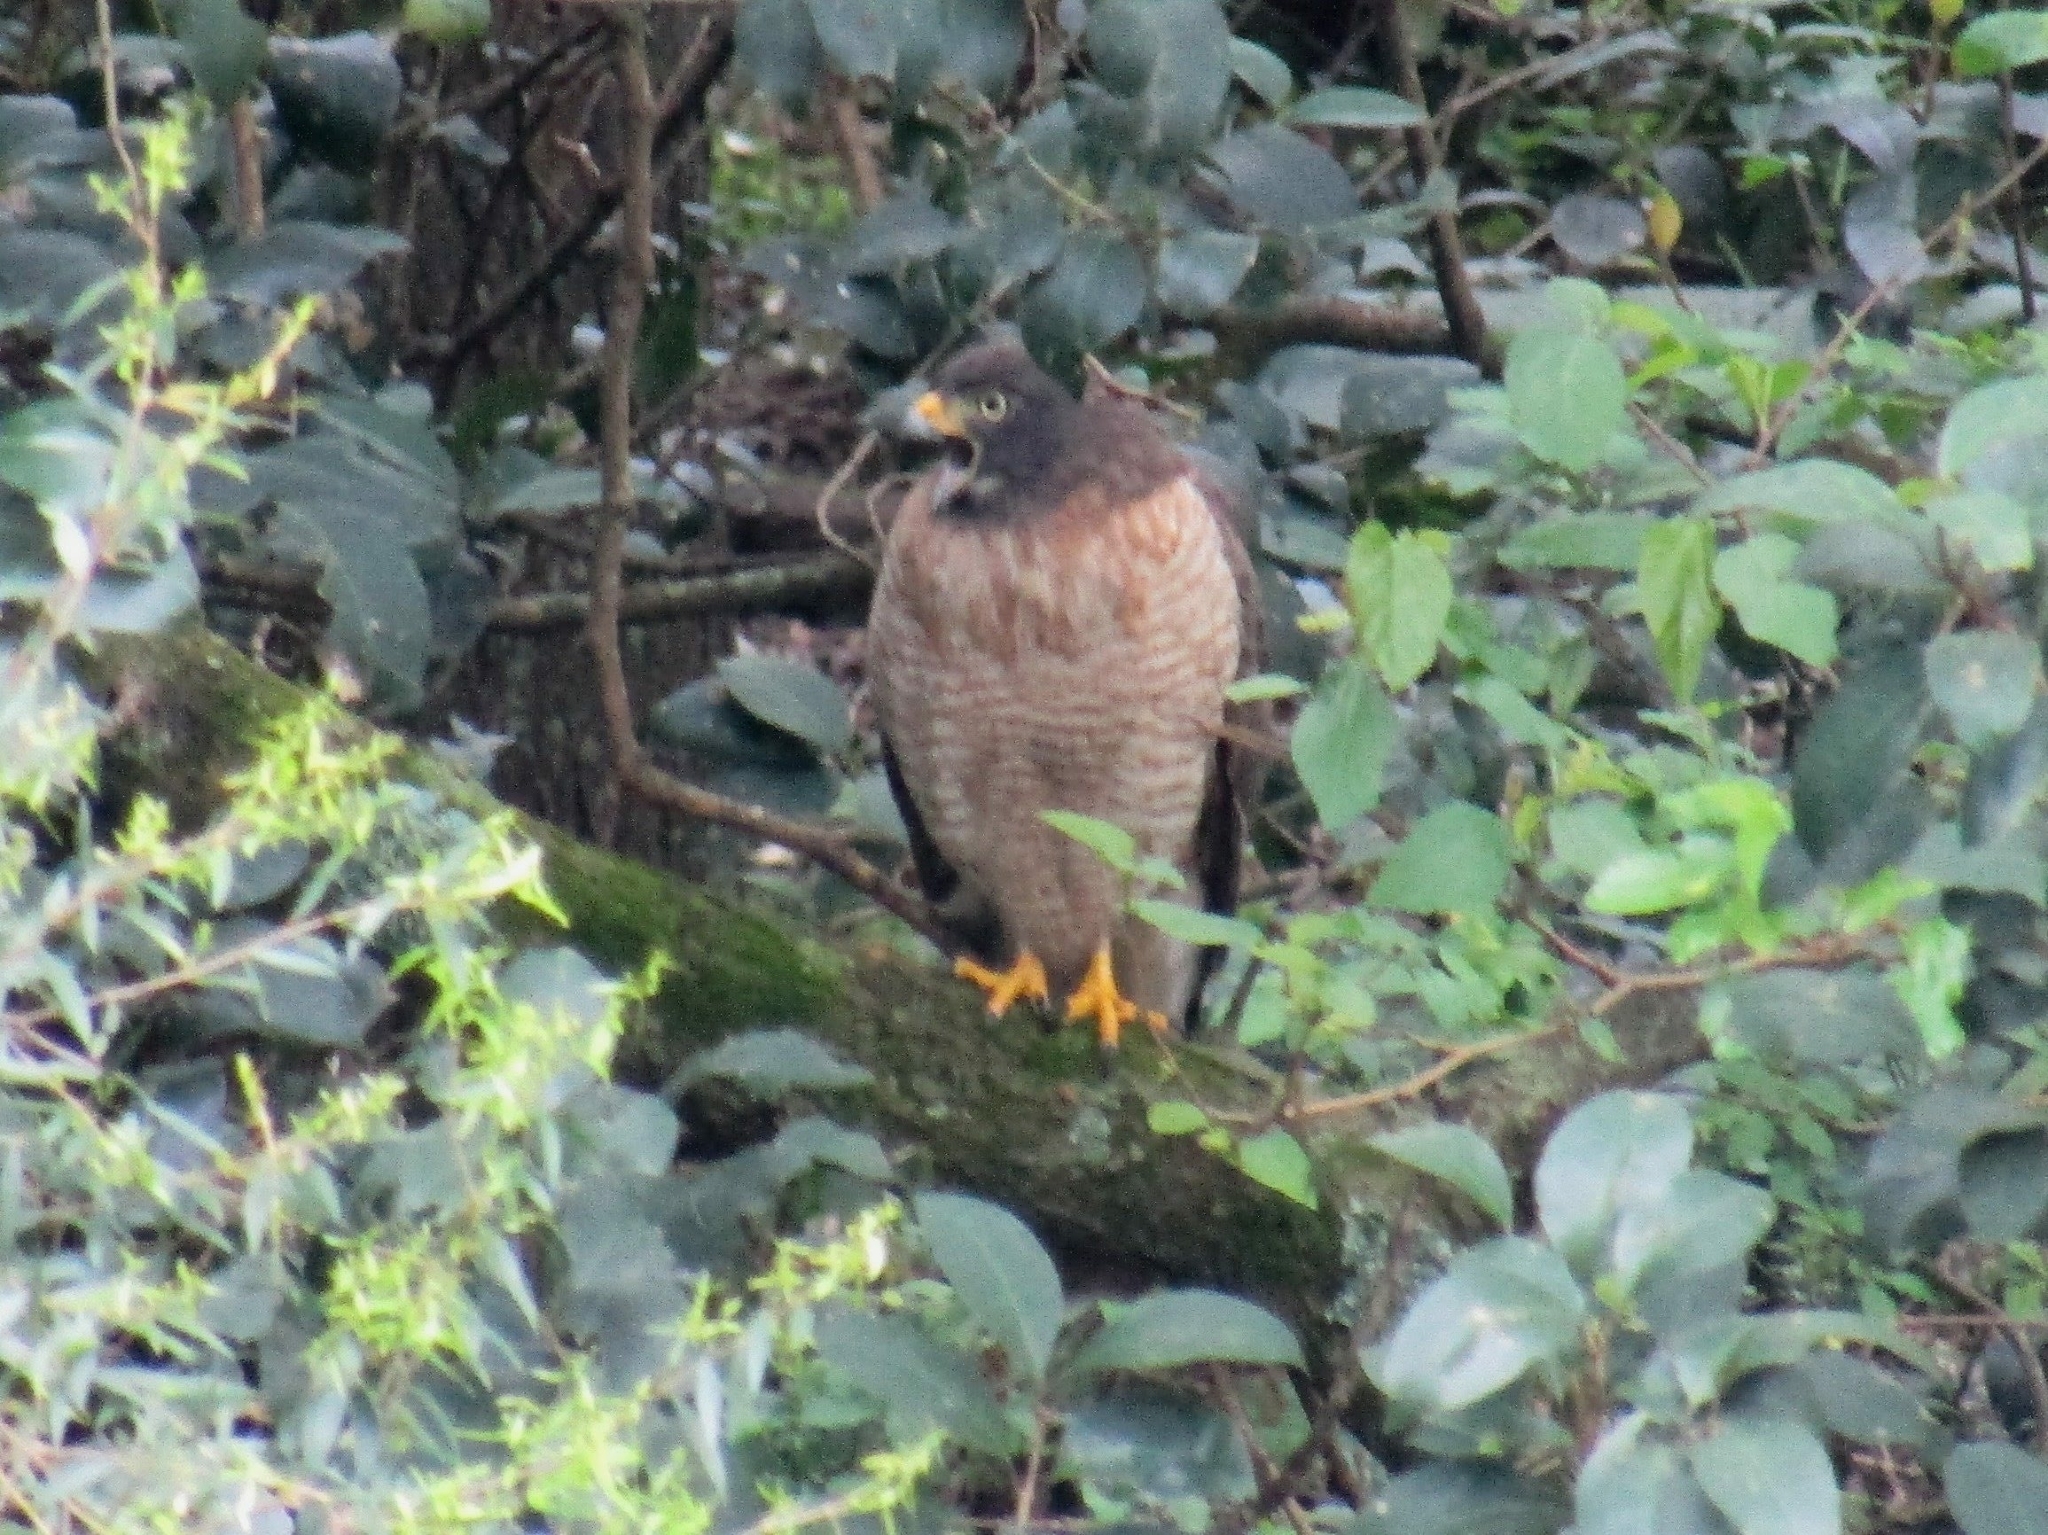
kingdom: Animalia
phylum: Chordata
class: Aves
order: Accipitriformes
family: Accipitridae
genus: Rupornis
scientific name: Rupornis magnirostris
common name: Roadside hawk
